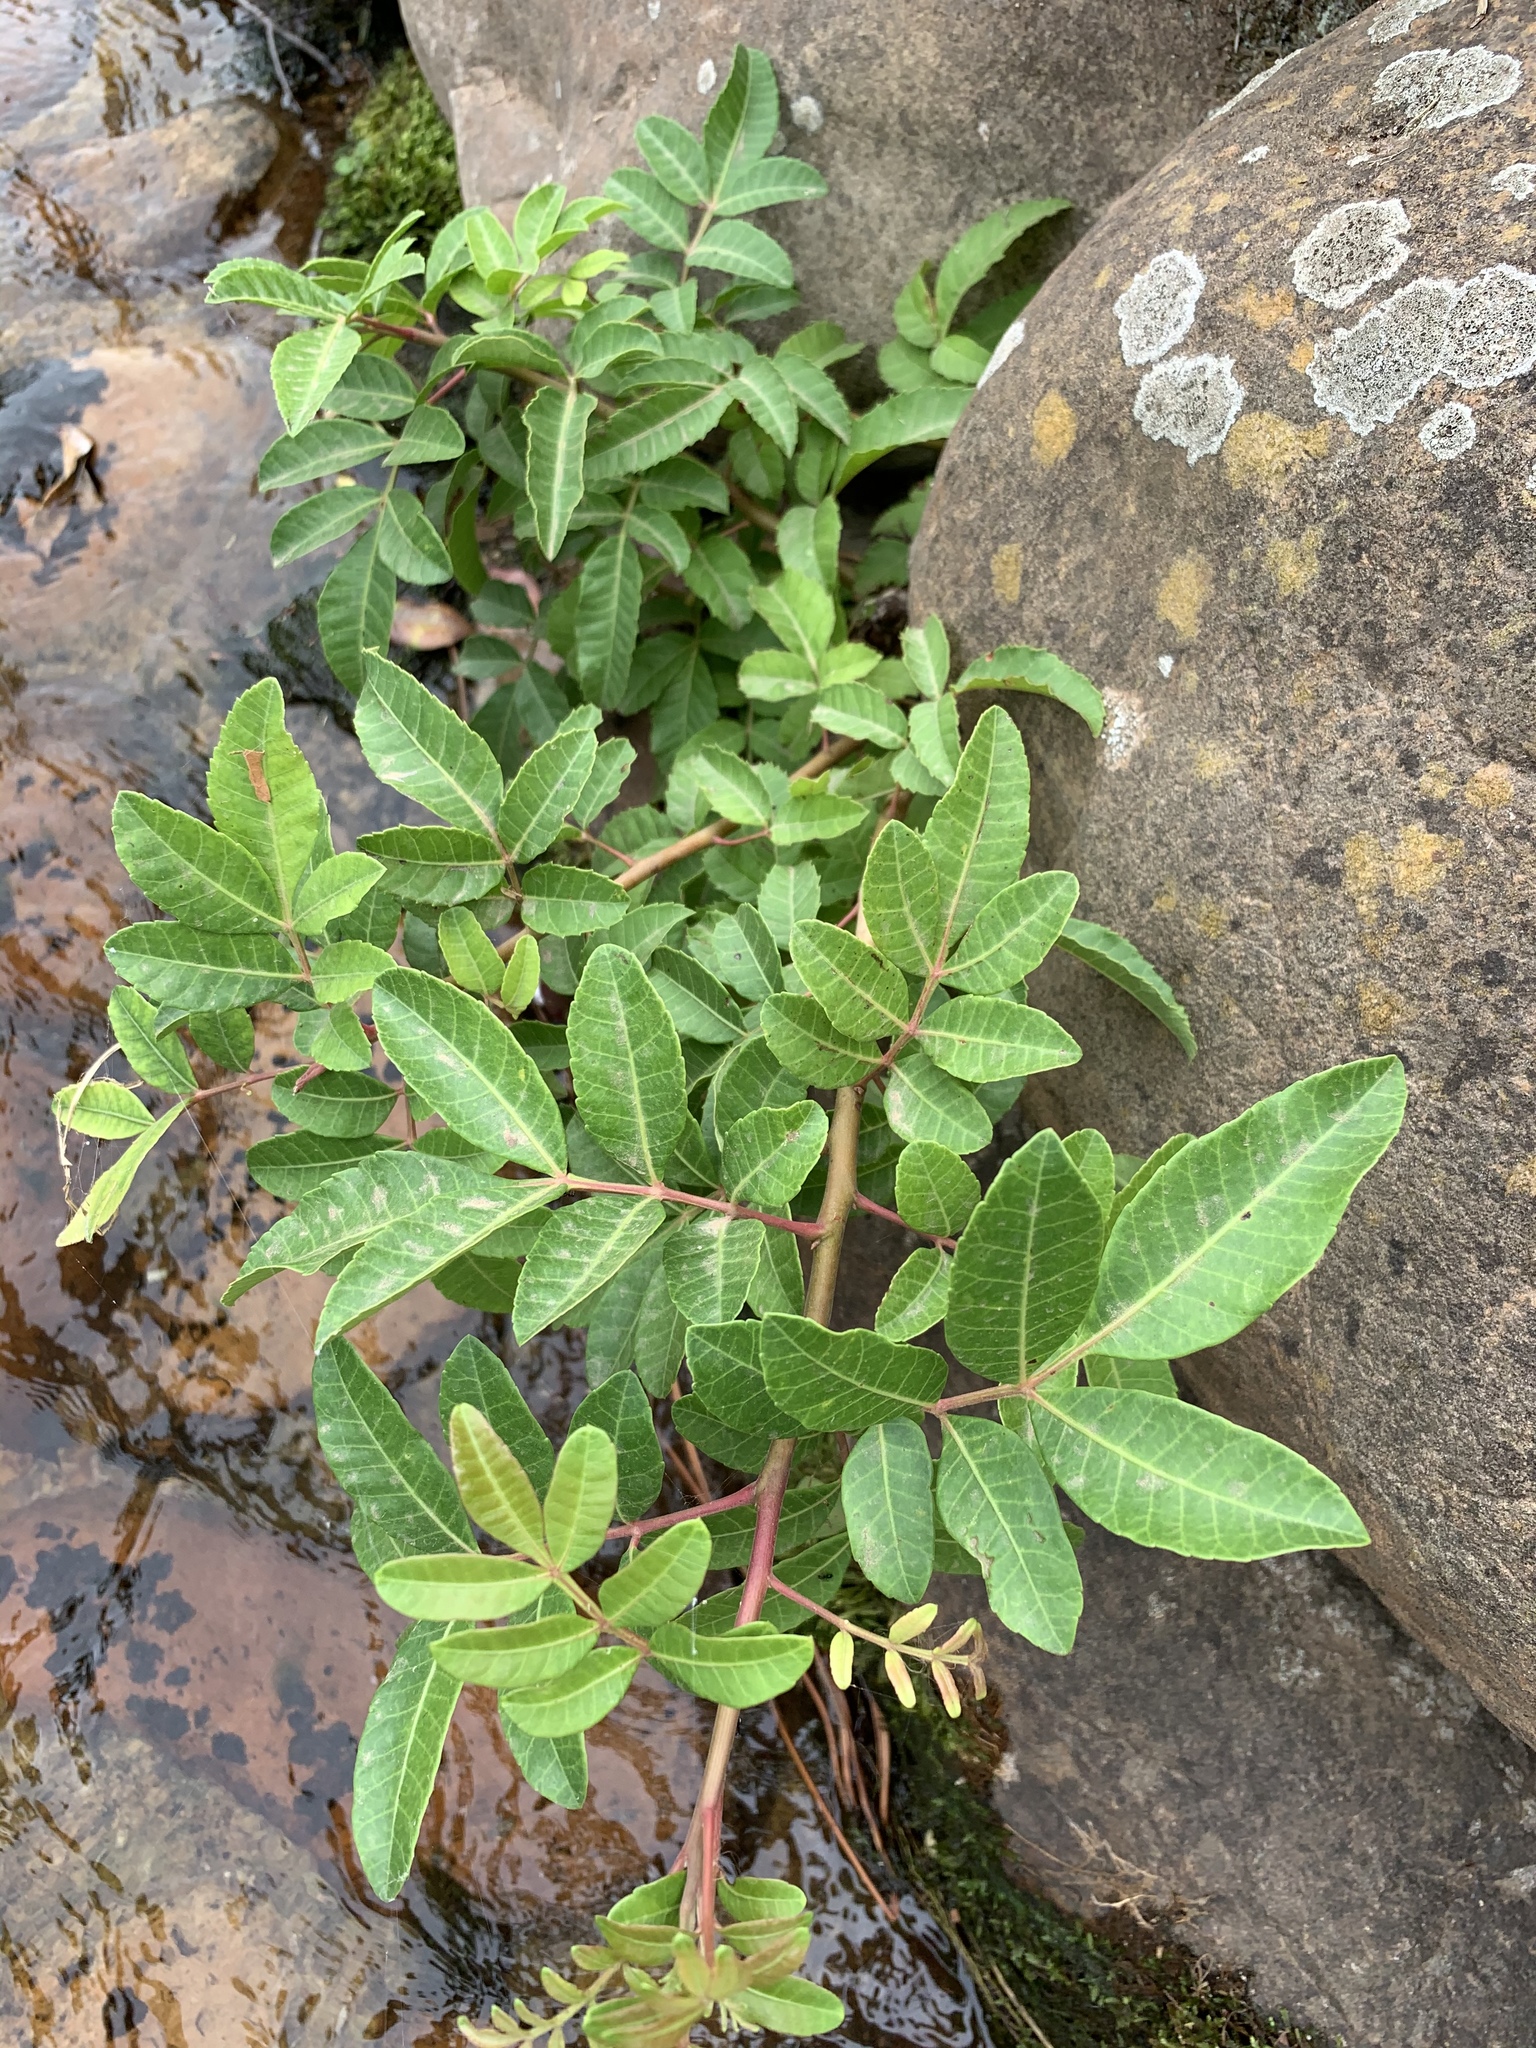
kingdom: Plantae
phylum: Tracheophyta
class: Magnoliopsida
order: Sapindales
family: Anacardiaceae
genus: Schinus
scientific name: Schinus terebinthifolia
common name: Brazilian peppertree
